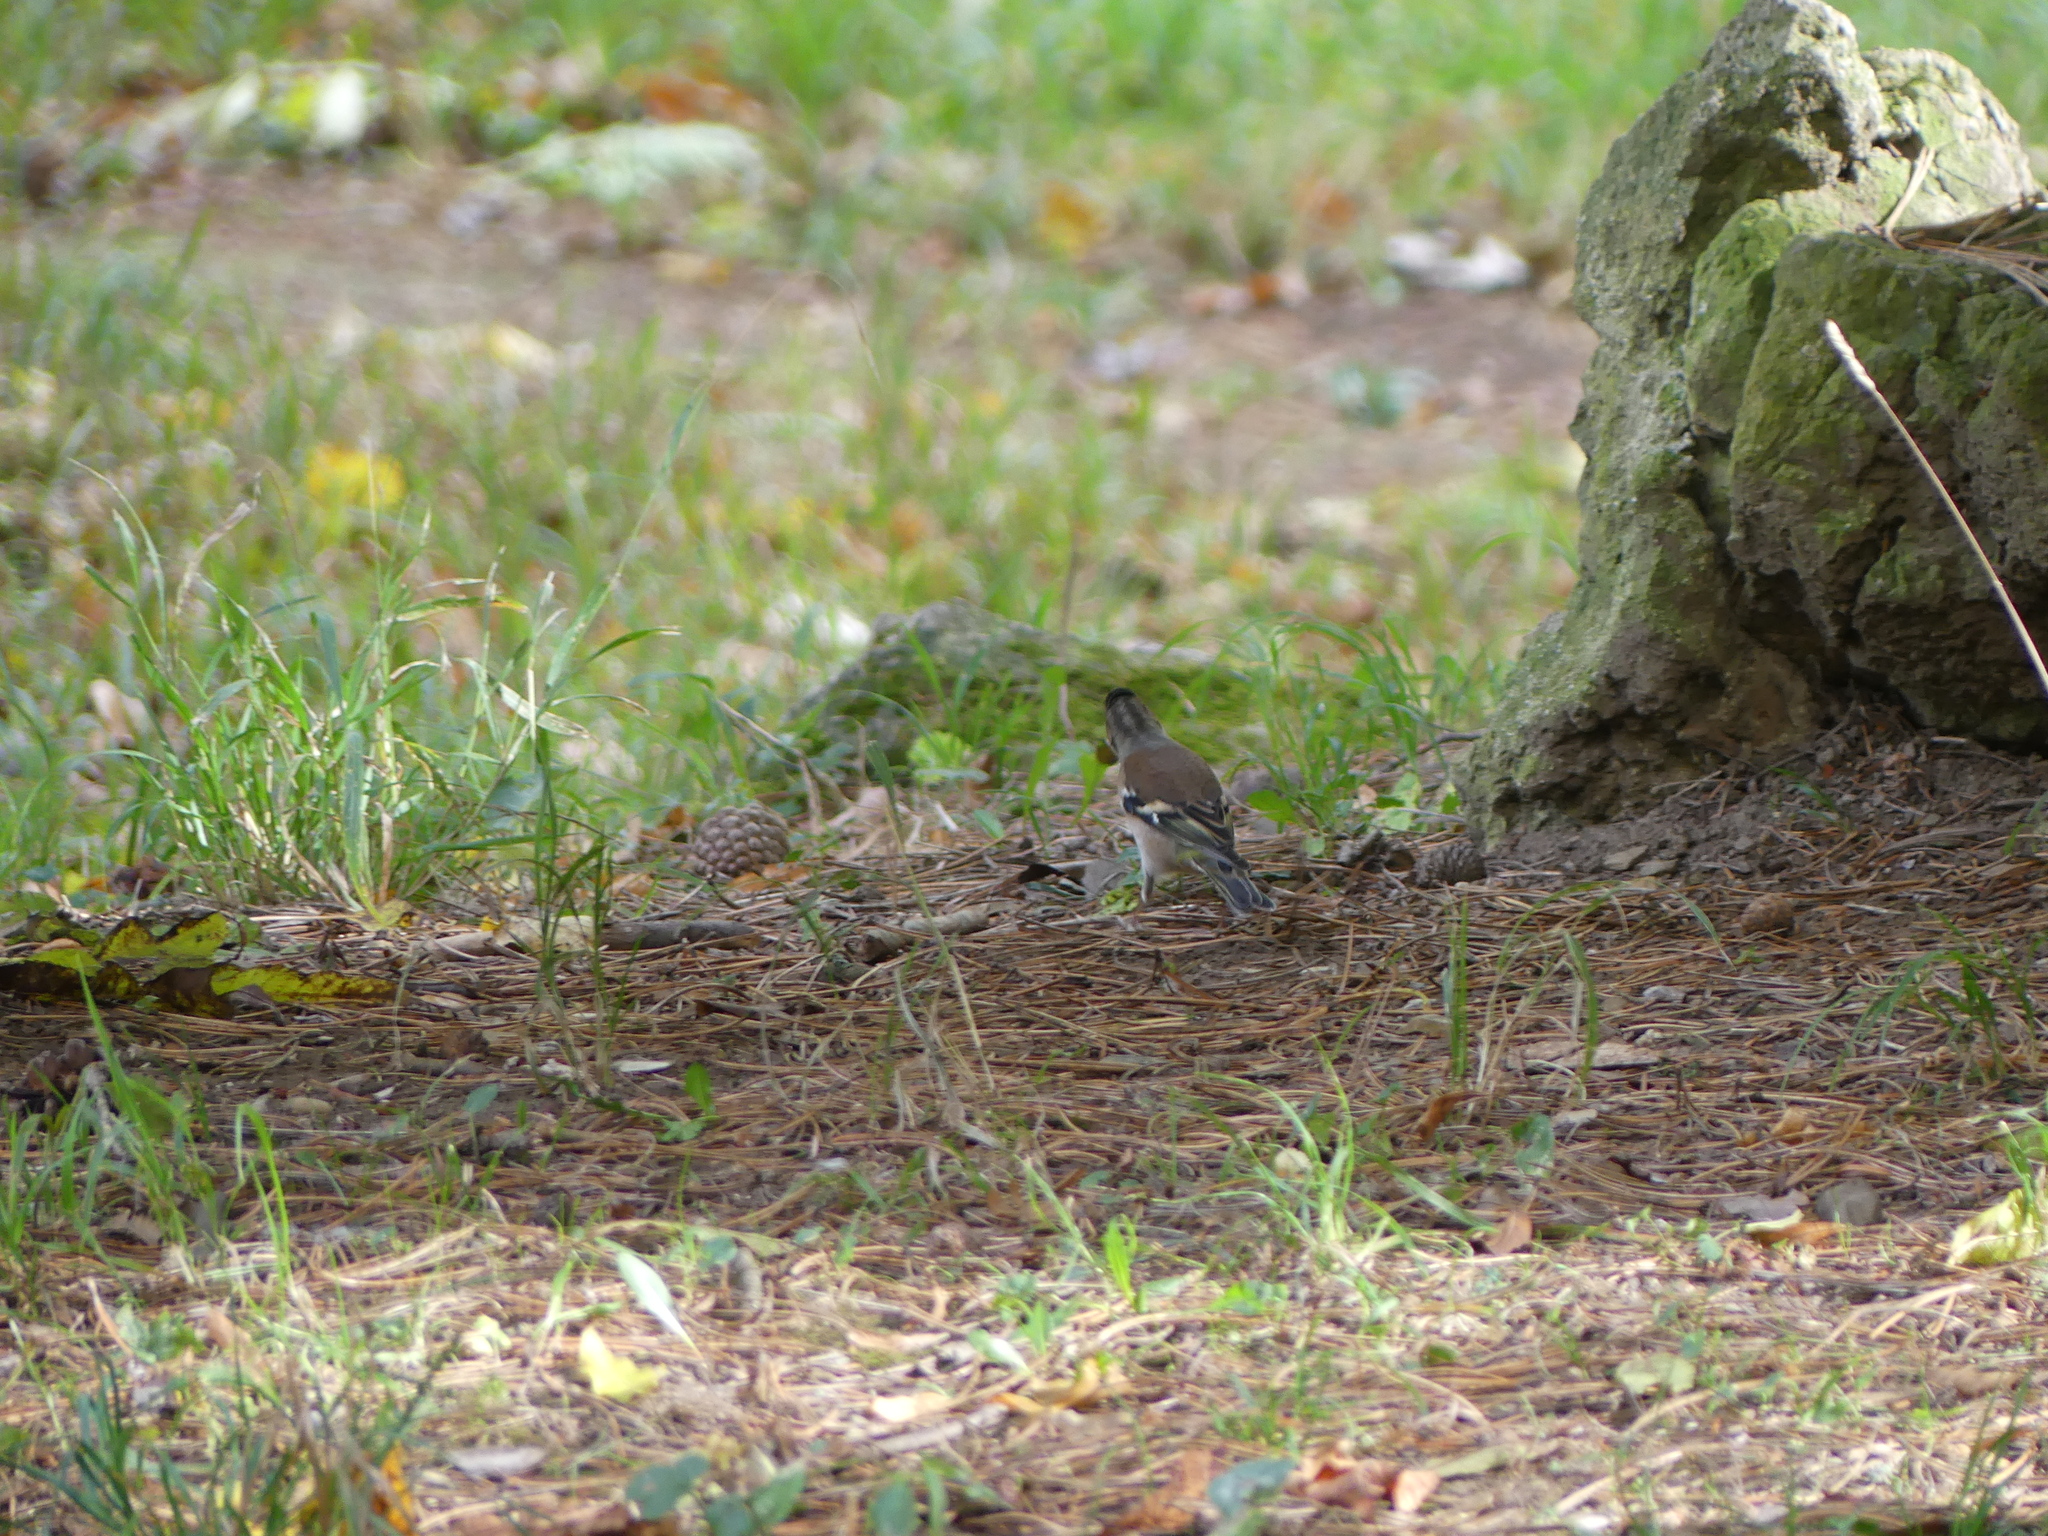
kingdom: Animalia
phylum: Chordata
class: Aves
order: Passeriformes
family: Fringillidae
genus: Fringilla
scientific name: Fringilla coelebs
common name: Common chaffinch
